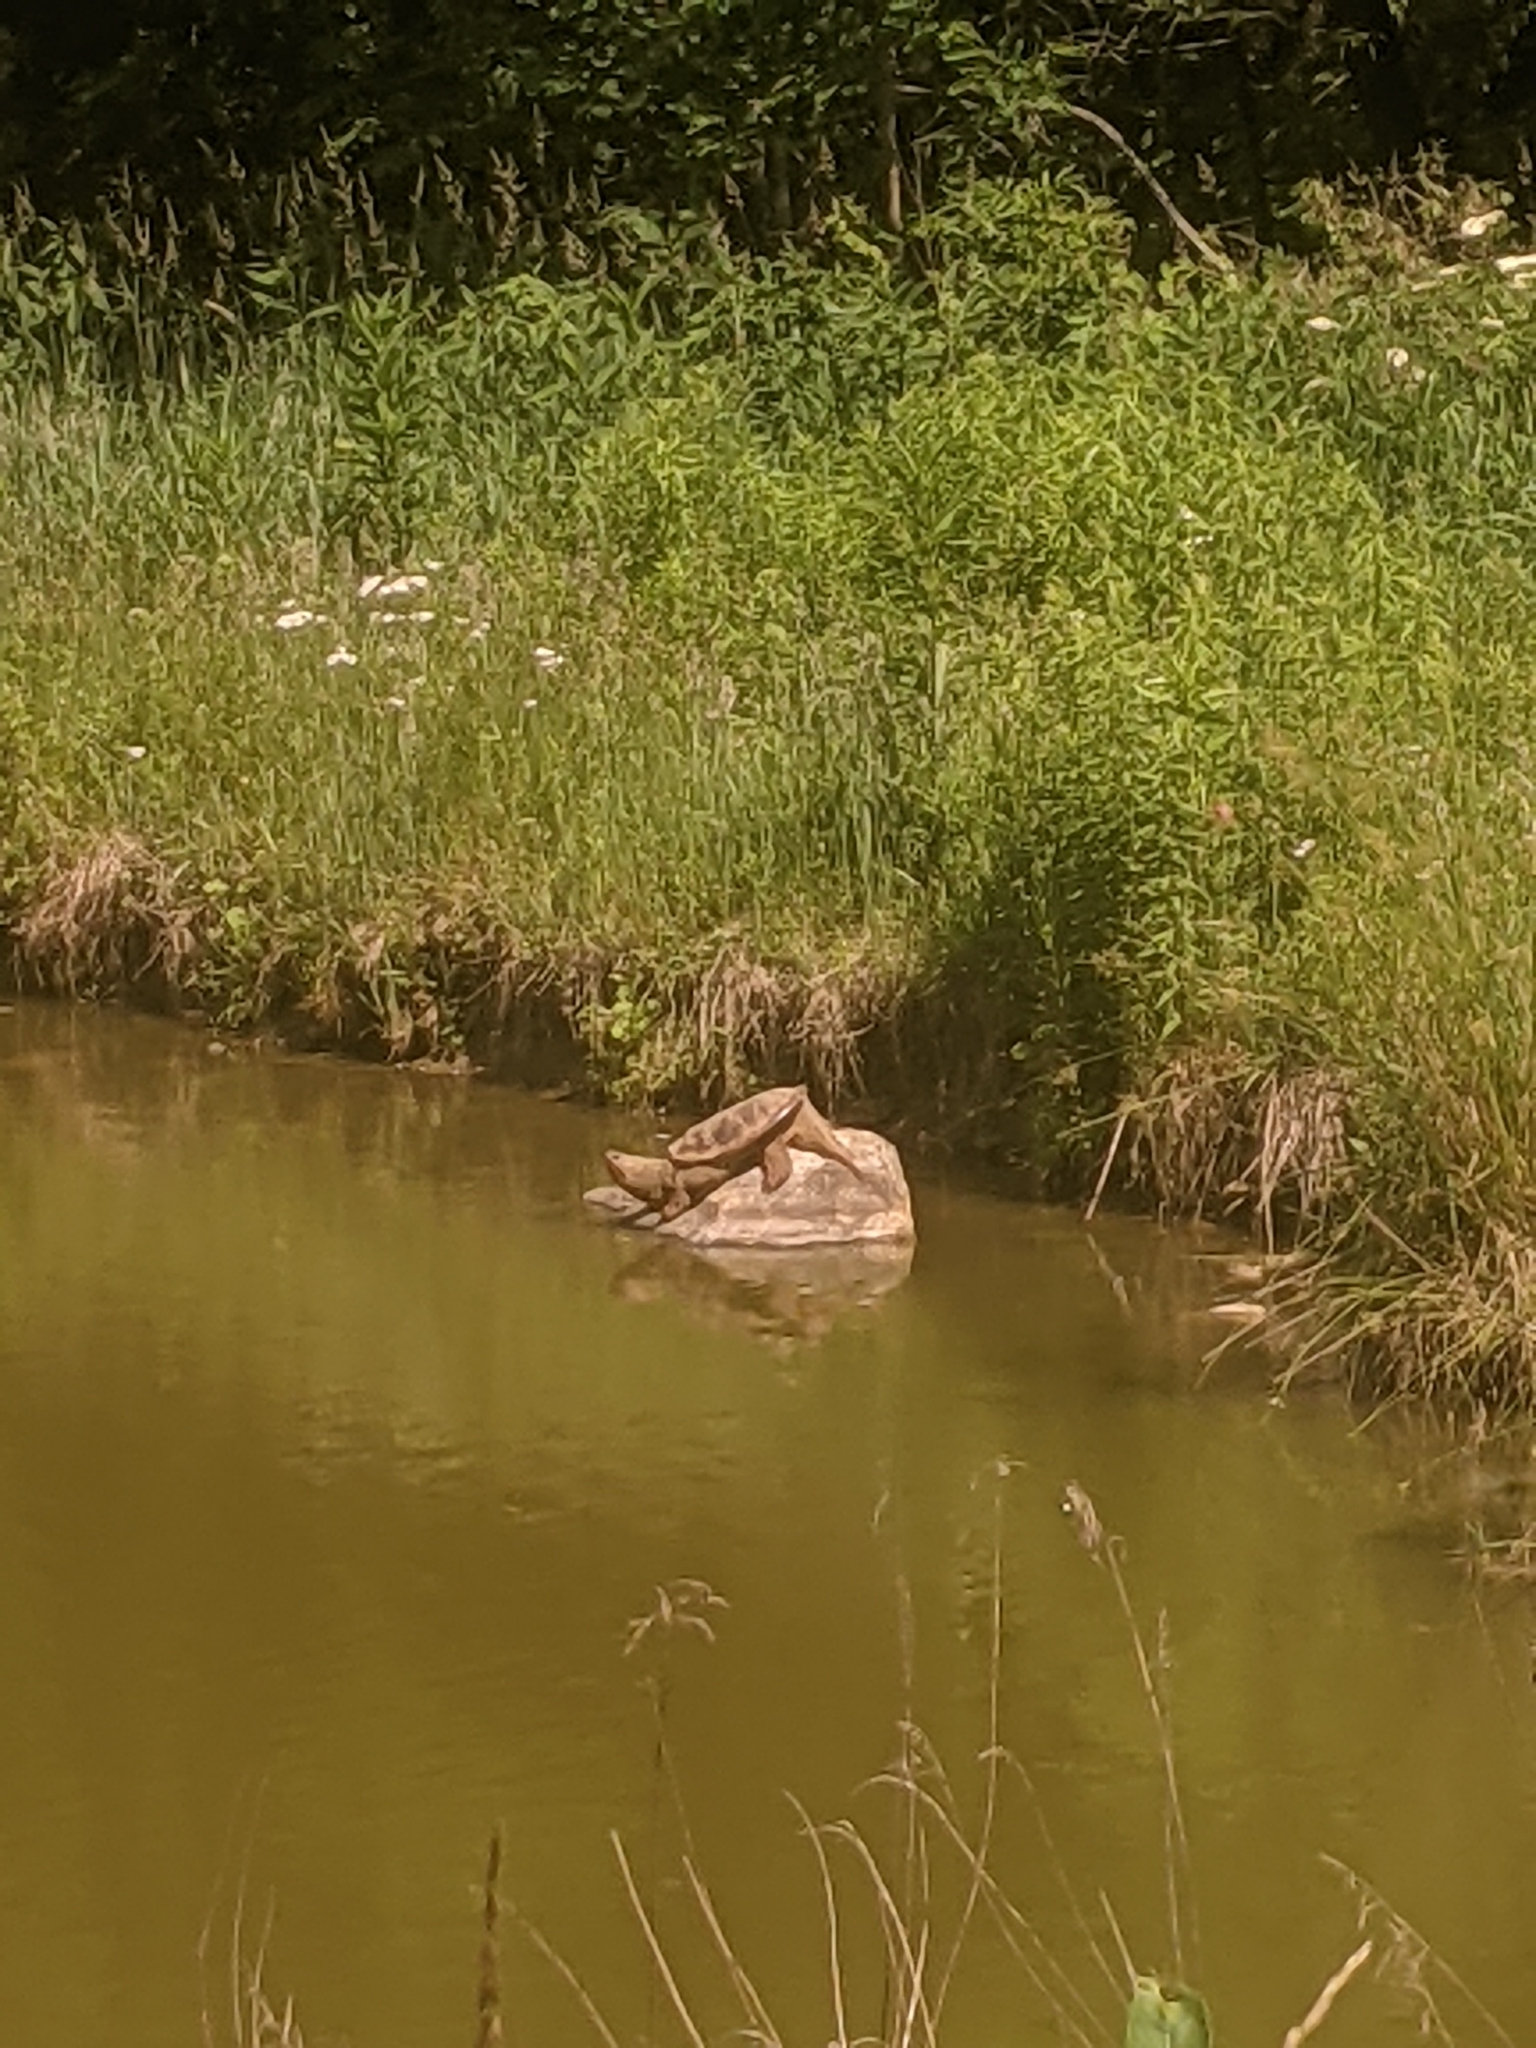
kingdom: Animalia
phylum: Chordata
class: Testudines
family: Chelydridae
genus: Chelydra
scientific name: Chelydra serpentina
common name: Common snapping turtle
